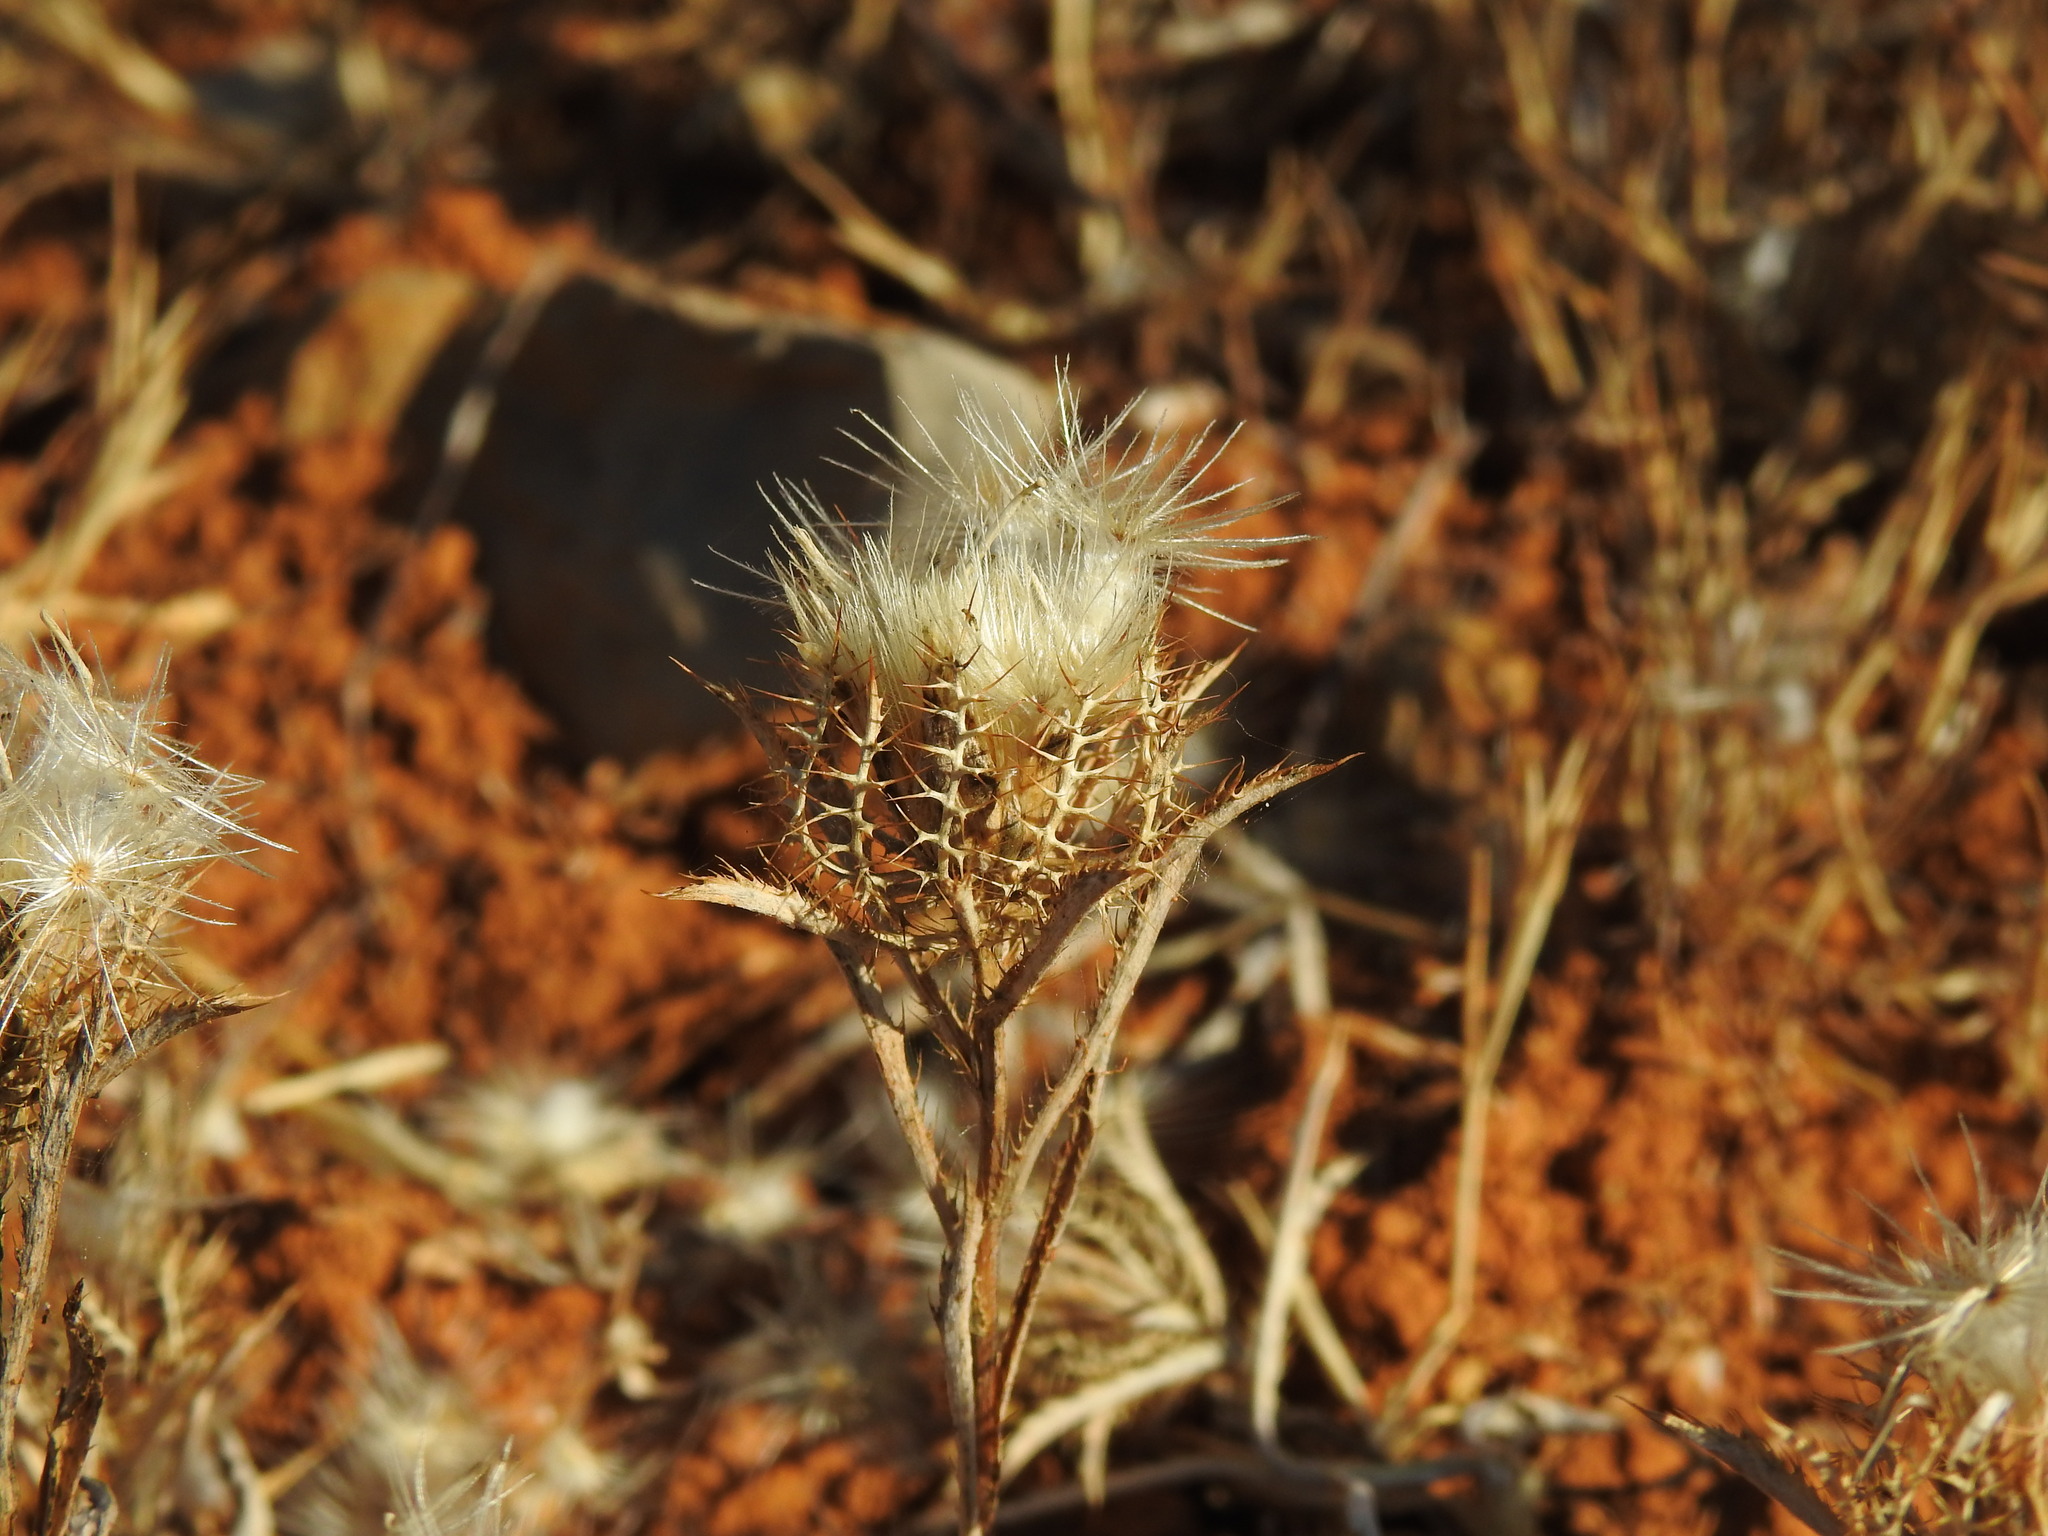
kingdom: Plantae
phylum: Tracheophyta
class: Magnoliopsida
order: Asterales
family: Asteraceae
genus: Atractylis
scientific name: Atractylis cancellata
